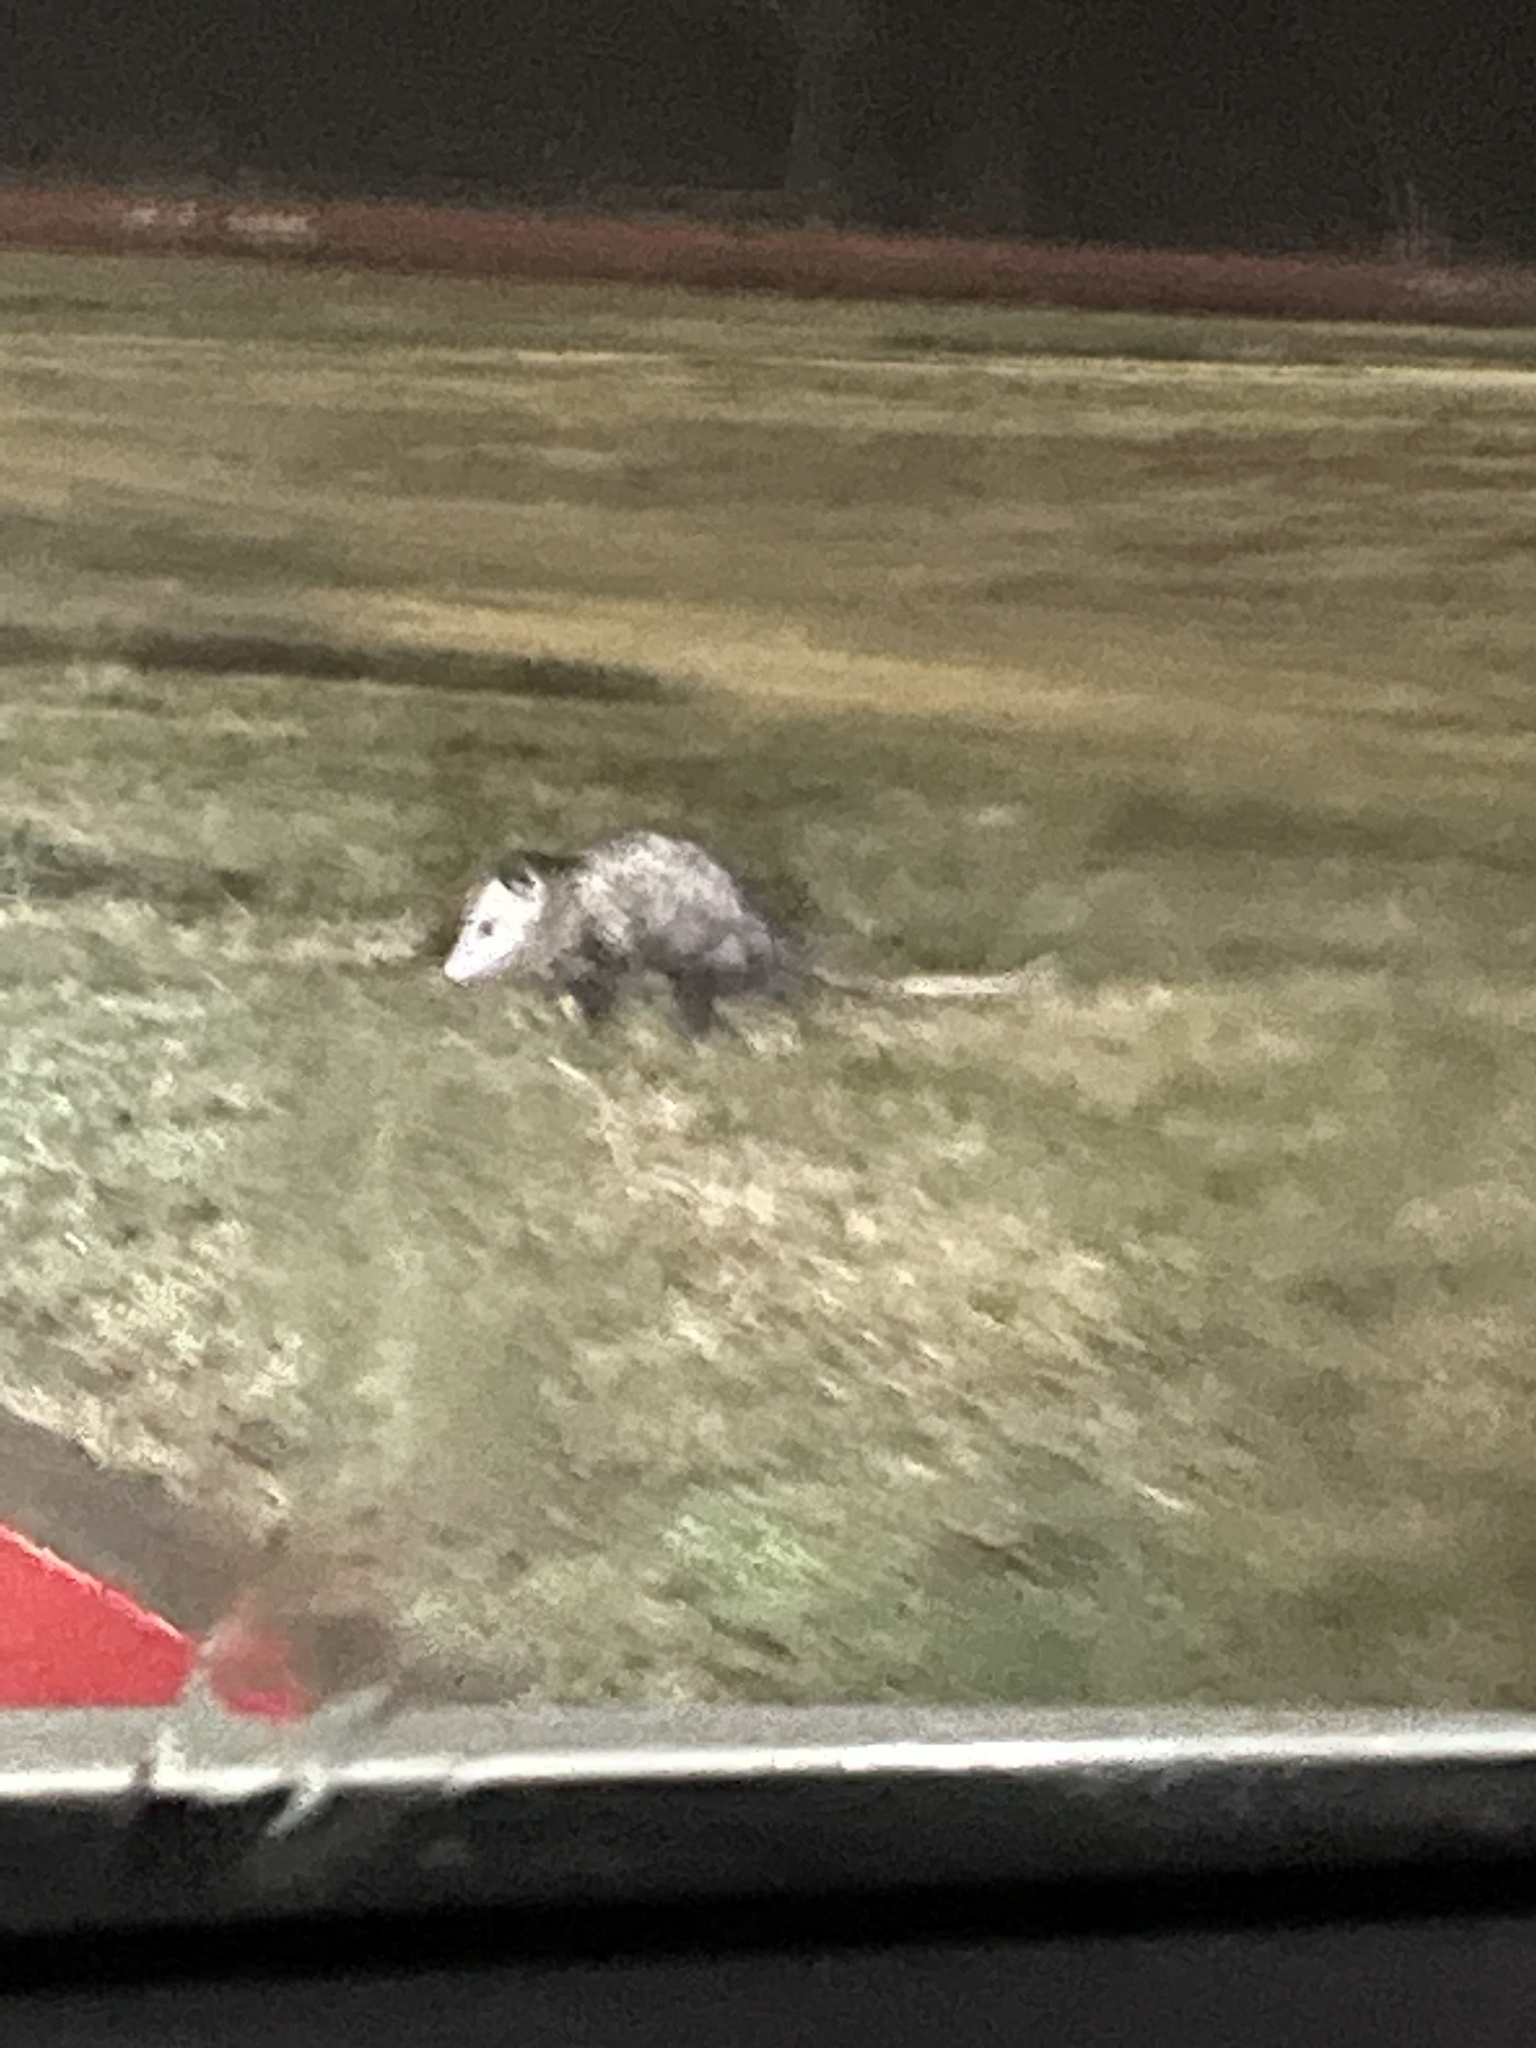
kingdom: Animalia
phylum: Chordata
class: Mammalia
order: Didelphimorphia
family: Didelphidae
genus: Didelphis
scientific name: Didelphis virginiana
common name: Virginia opossum
